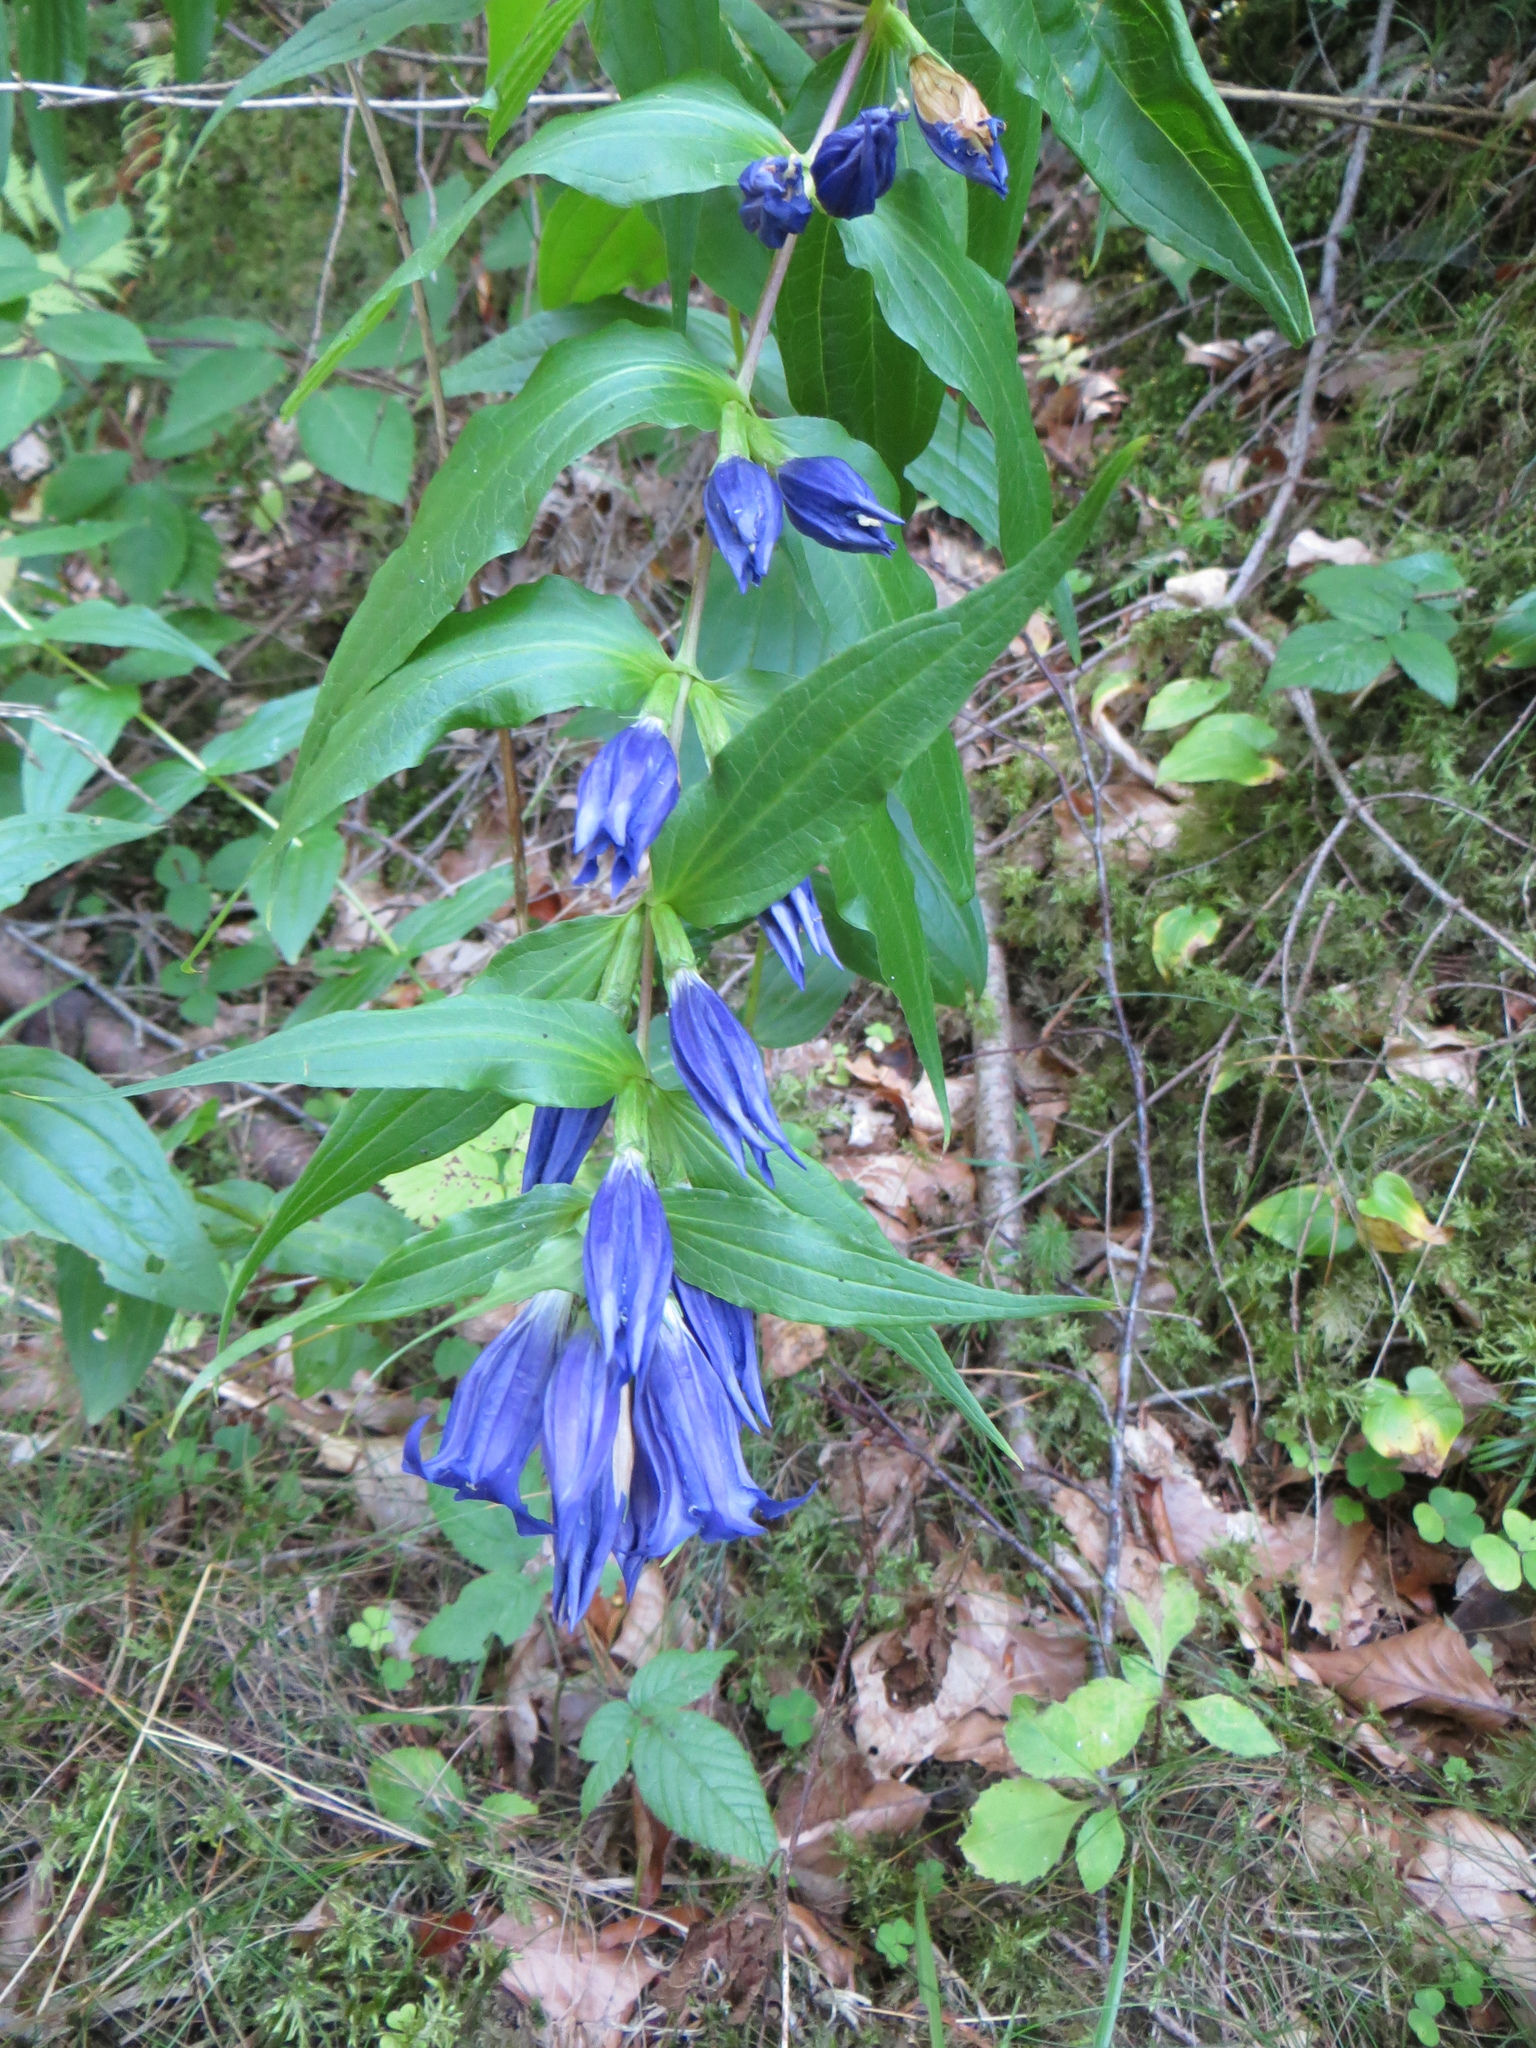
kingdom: Plantae
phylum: Tracheophyta
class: Magnoliopsida
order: Gentianales
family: Gentianaceae
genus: Gentiana
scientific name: Gentiana asclepiadea
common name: Willow gentian
